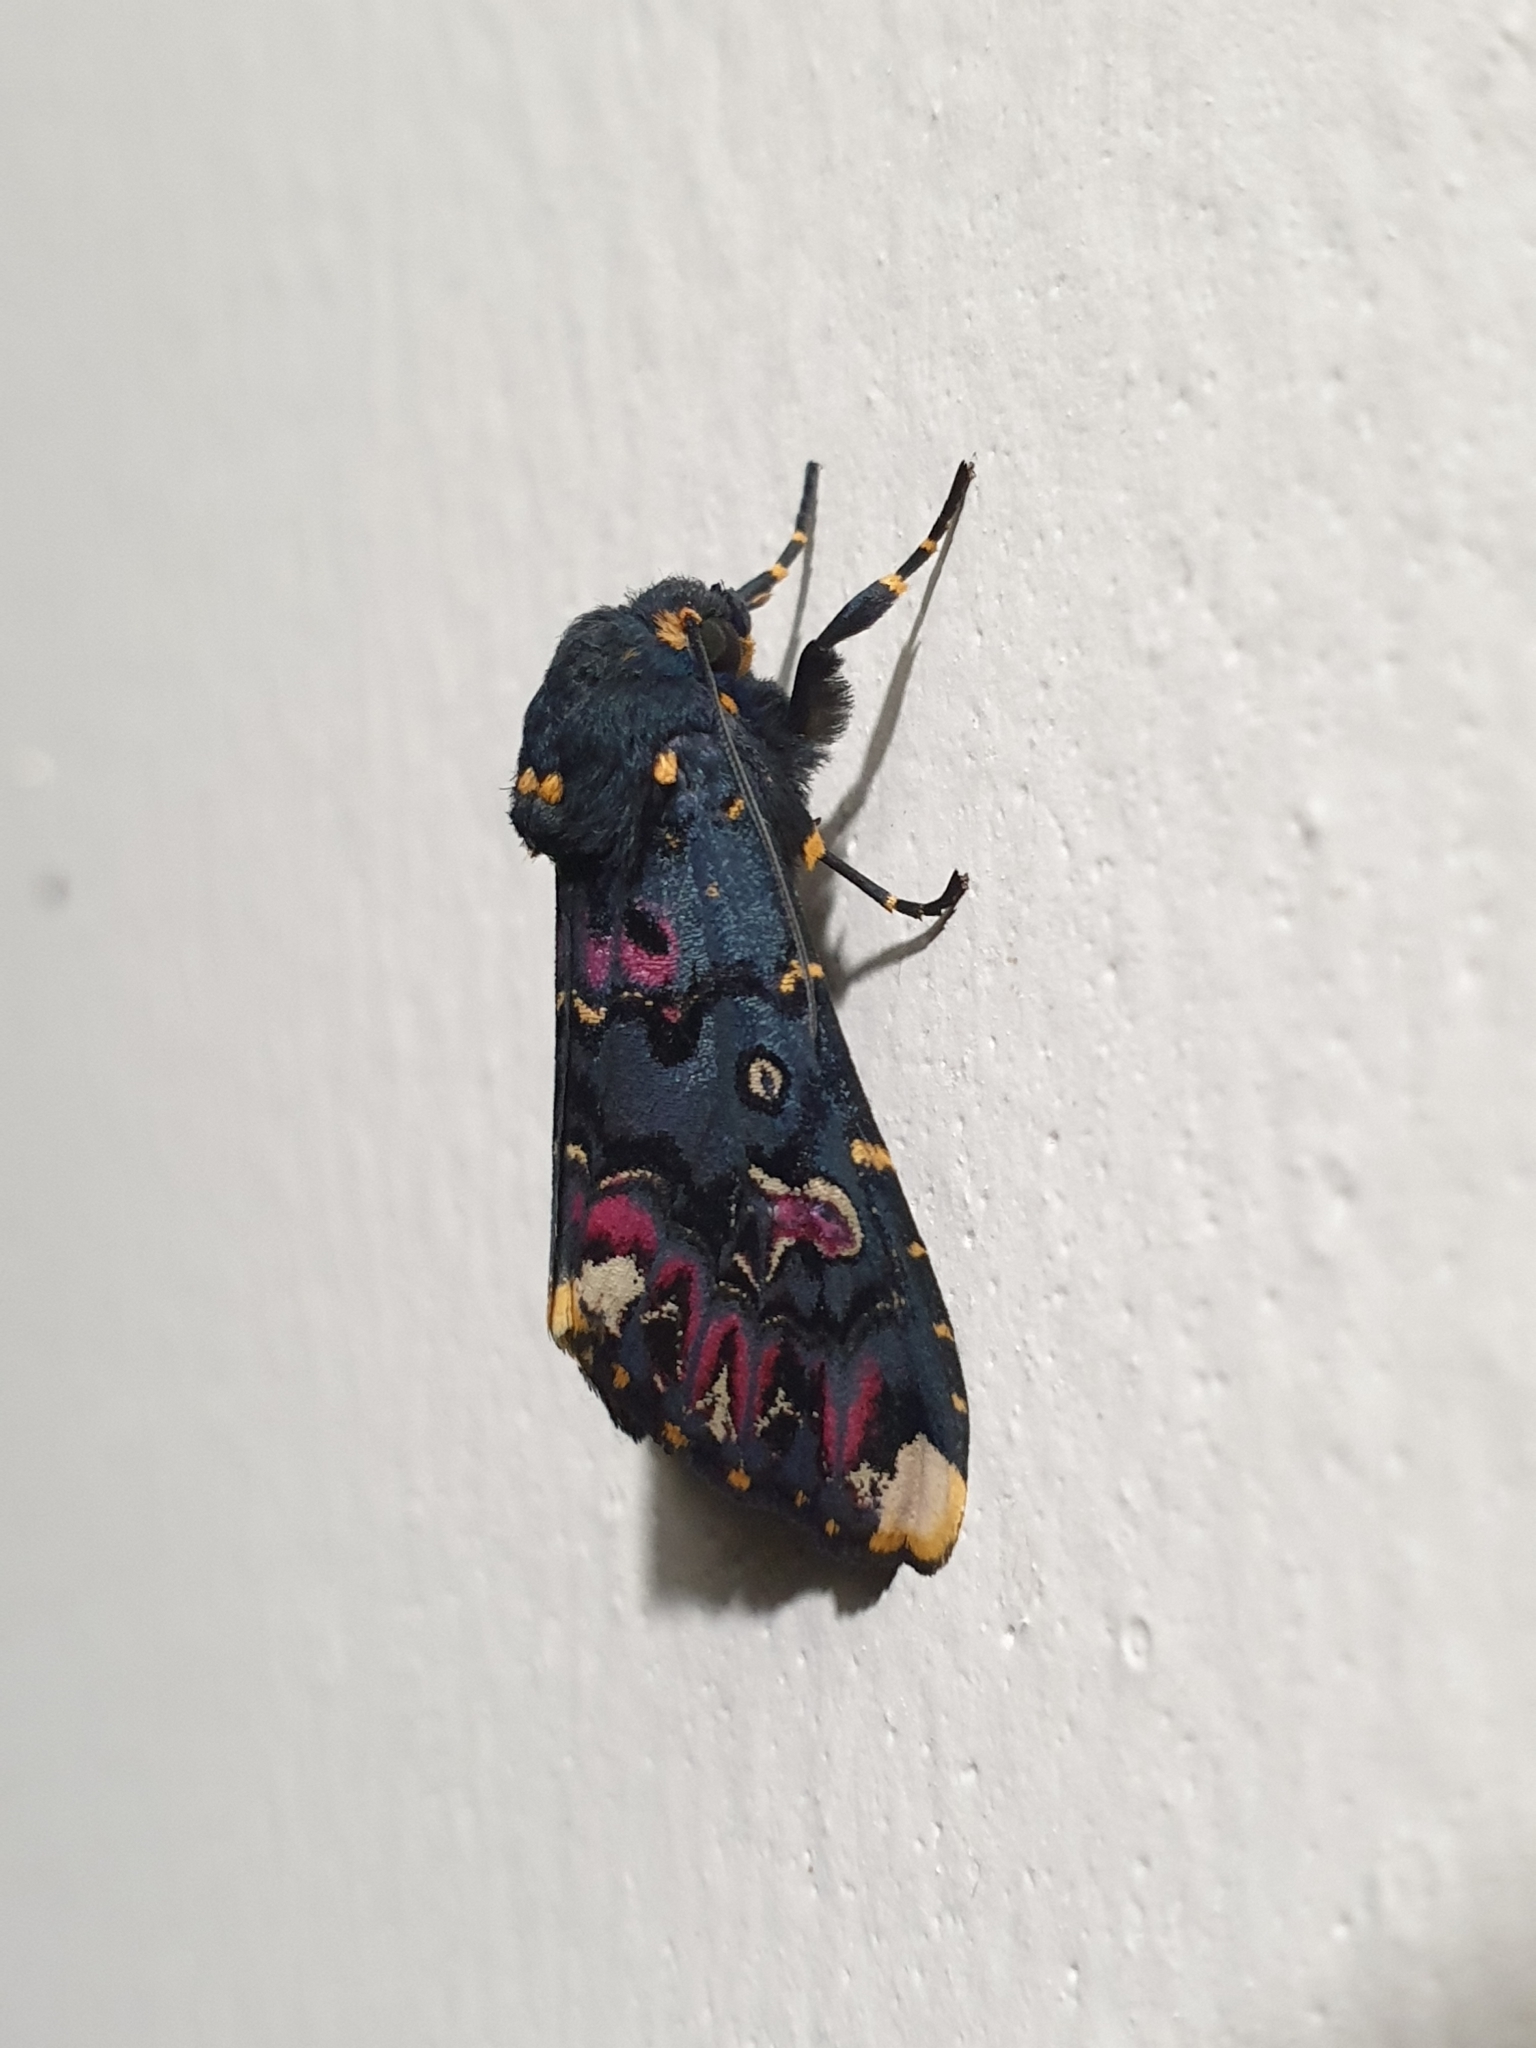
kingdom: Animalia
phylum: Arthropoda
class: Insecta
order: Lepidoptera
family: Noctuidae
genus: Polytela
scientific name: Polytela gloriosae
